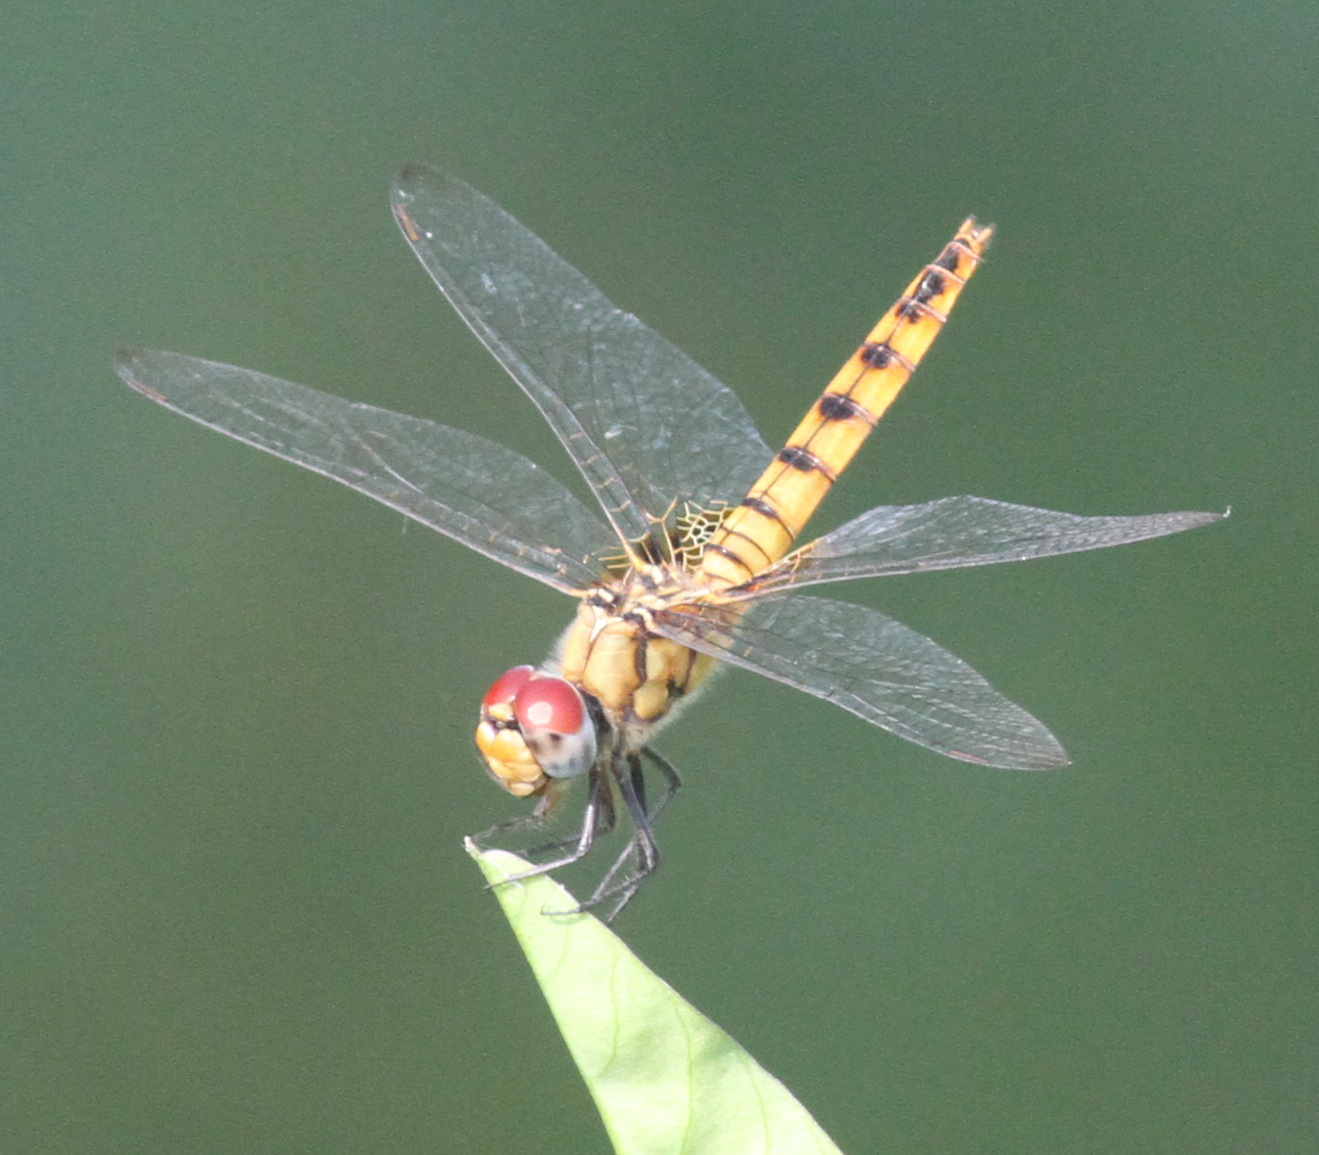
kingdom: Animalia
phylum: Arthropoda
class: Insecta
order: Odonata
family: Libellulidae
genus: Urothemis
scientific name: Urothemis signata
